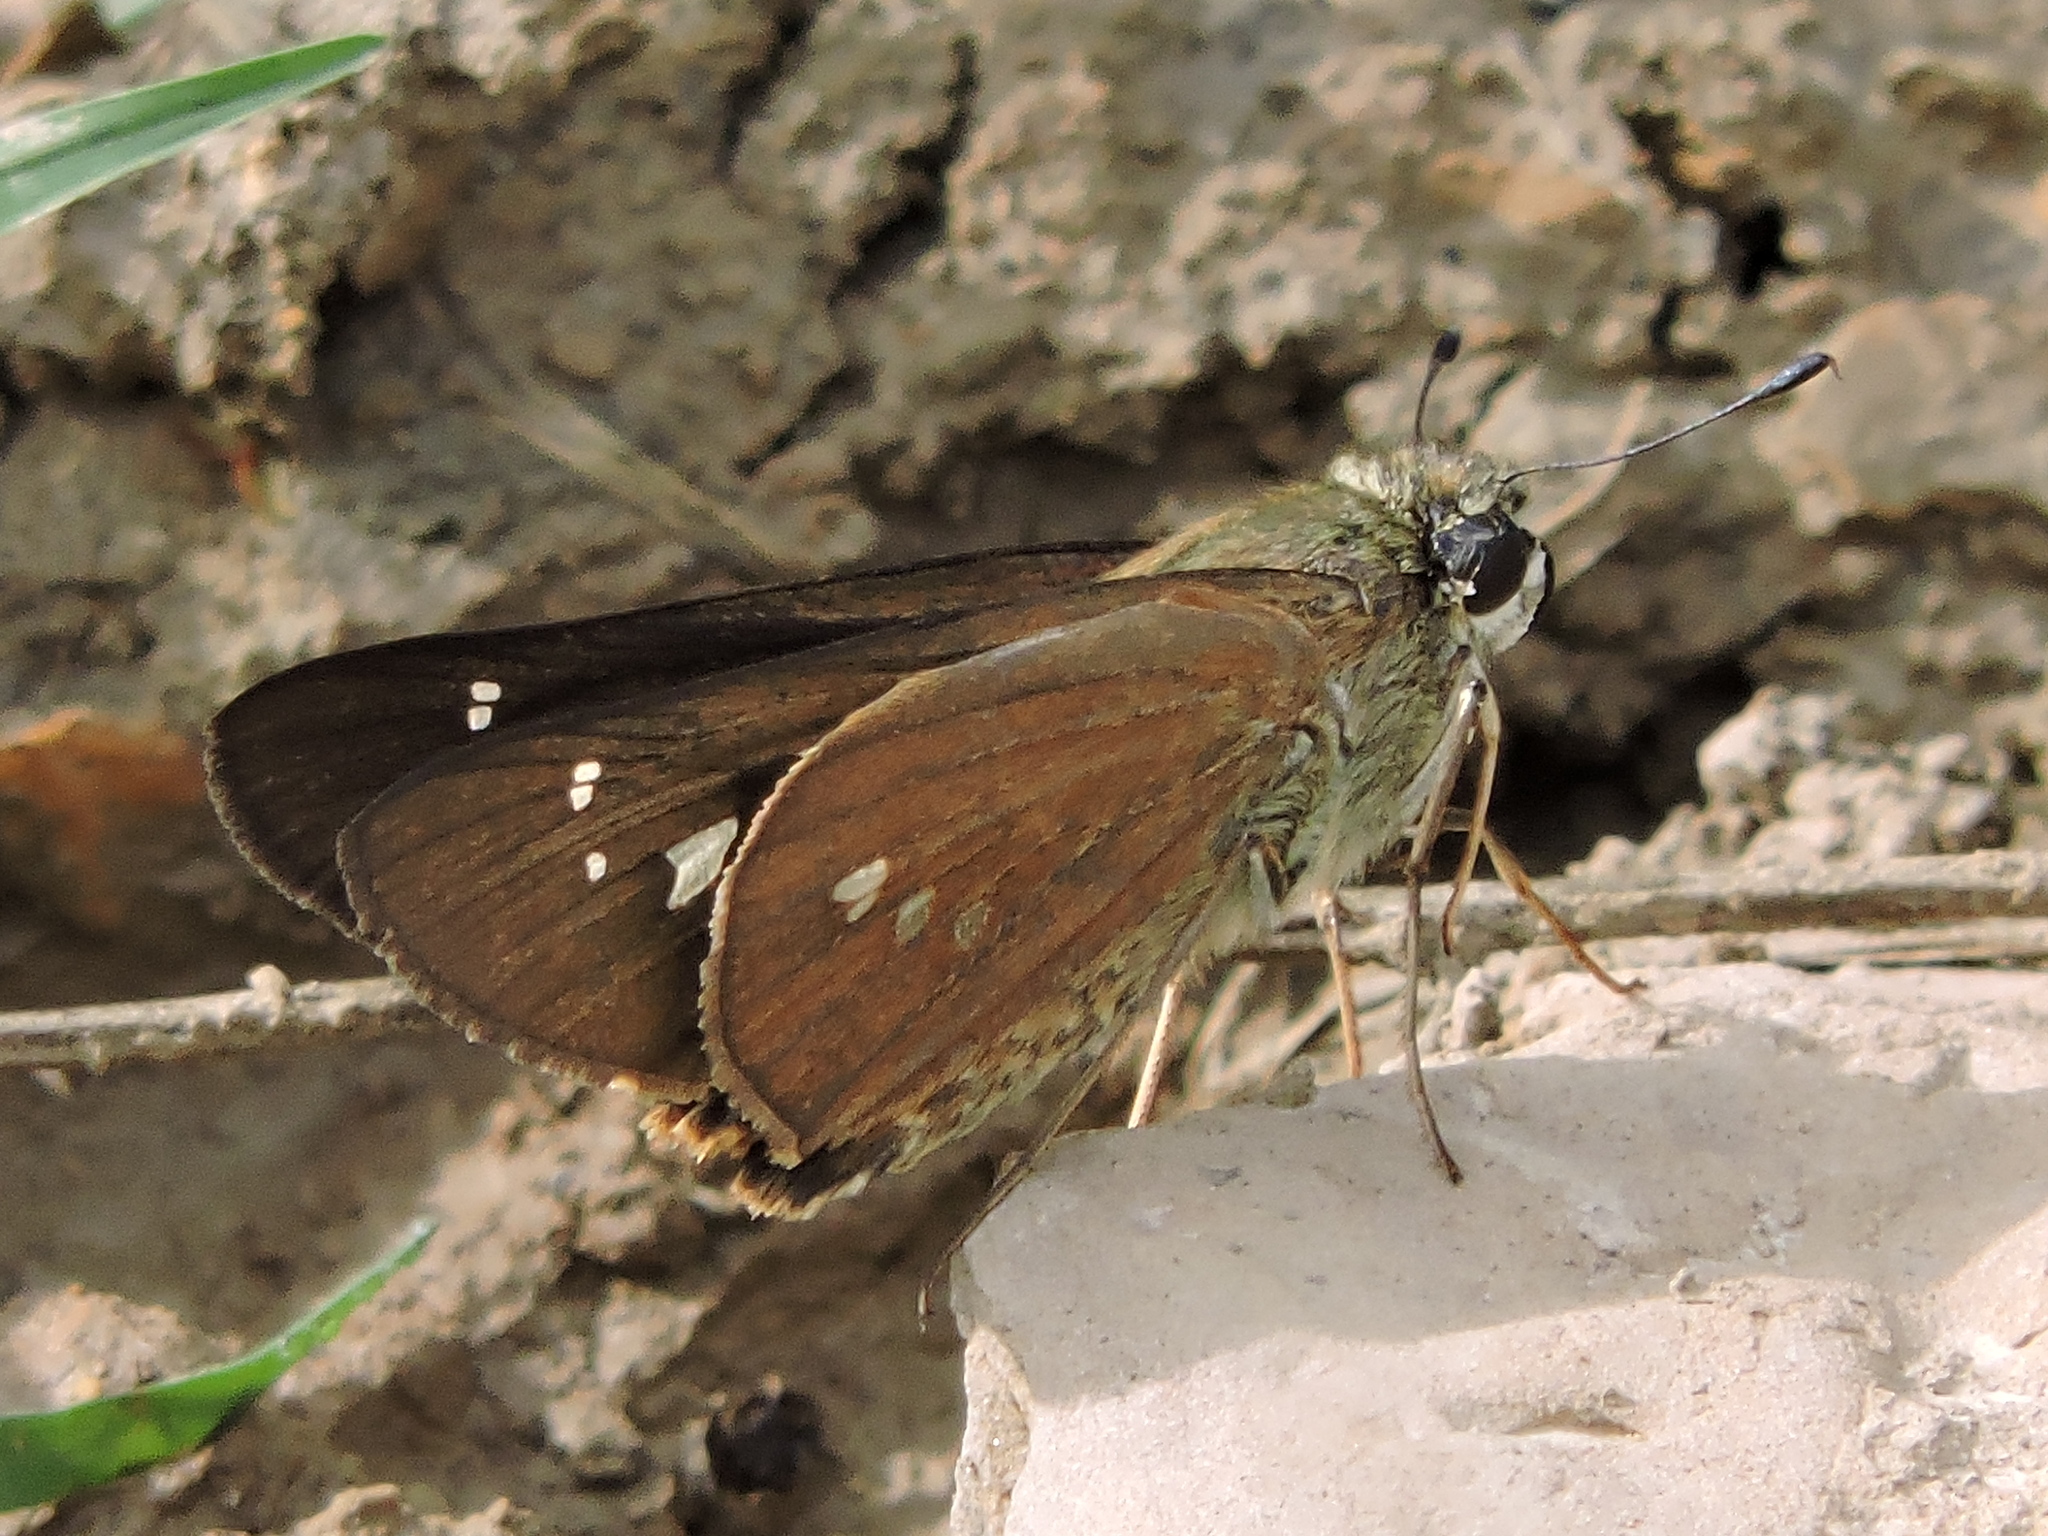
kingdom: Animalia
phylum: Arthropoda
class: Insecta
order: Lepidoptera
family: Hesperiidae
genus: Calpodes
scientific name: Calpodes ethlius
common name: Brazilian skipper
